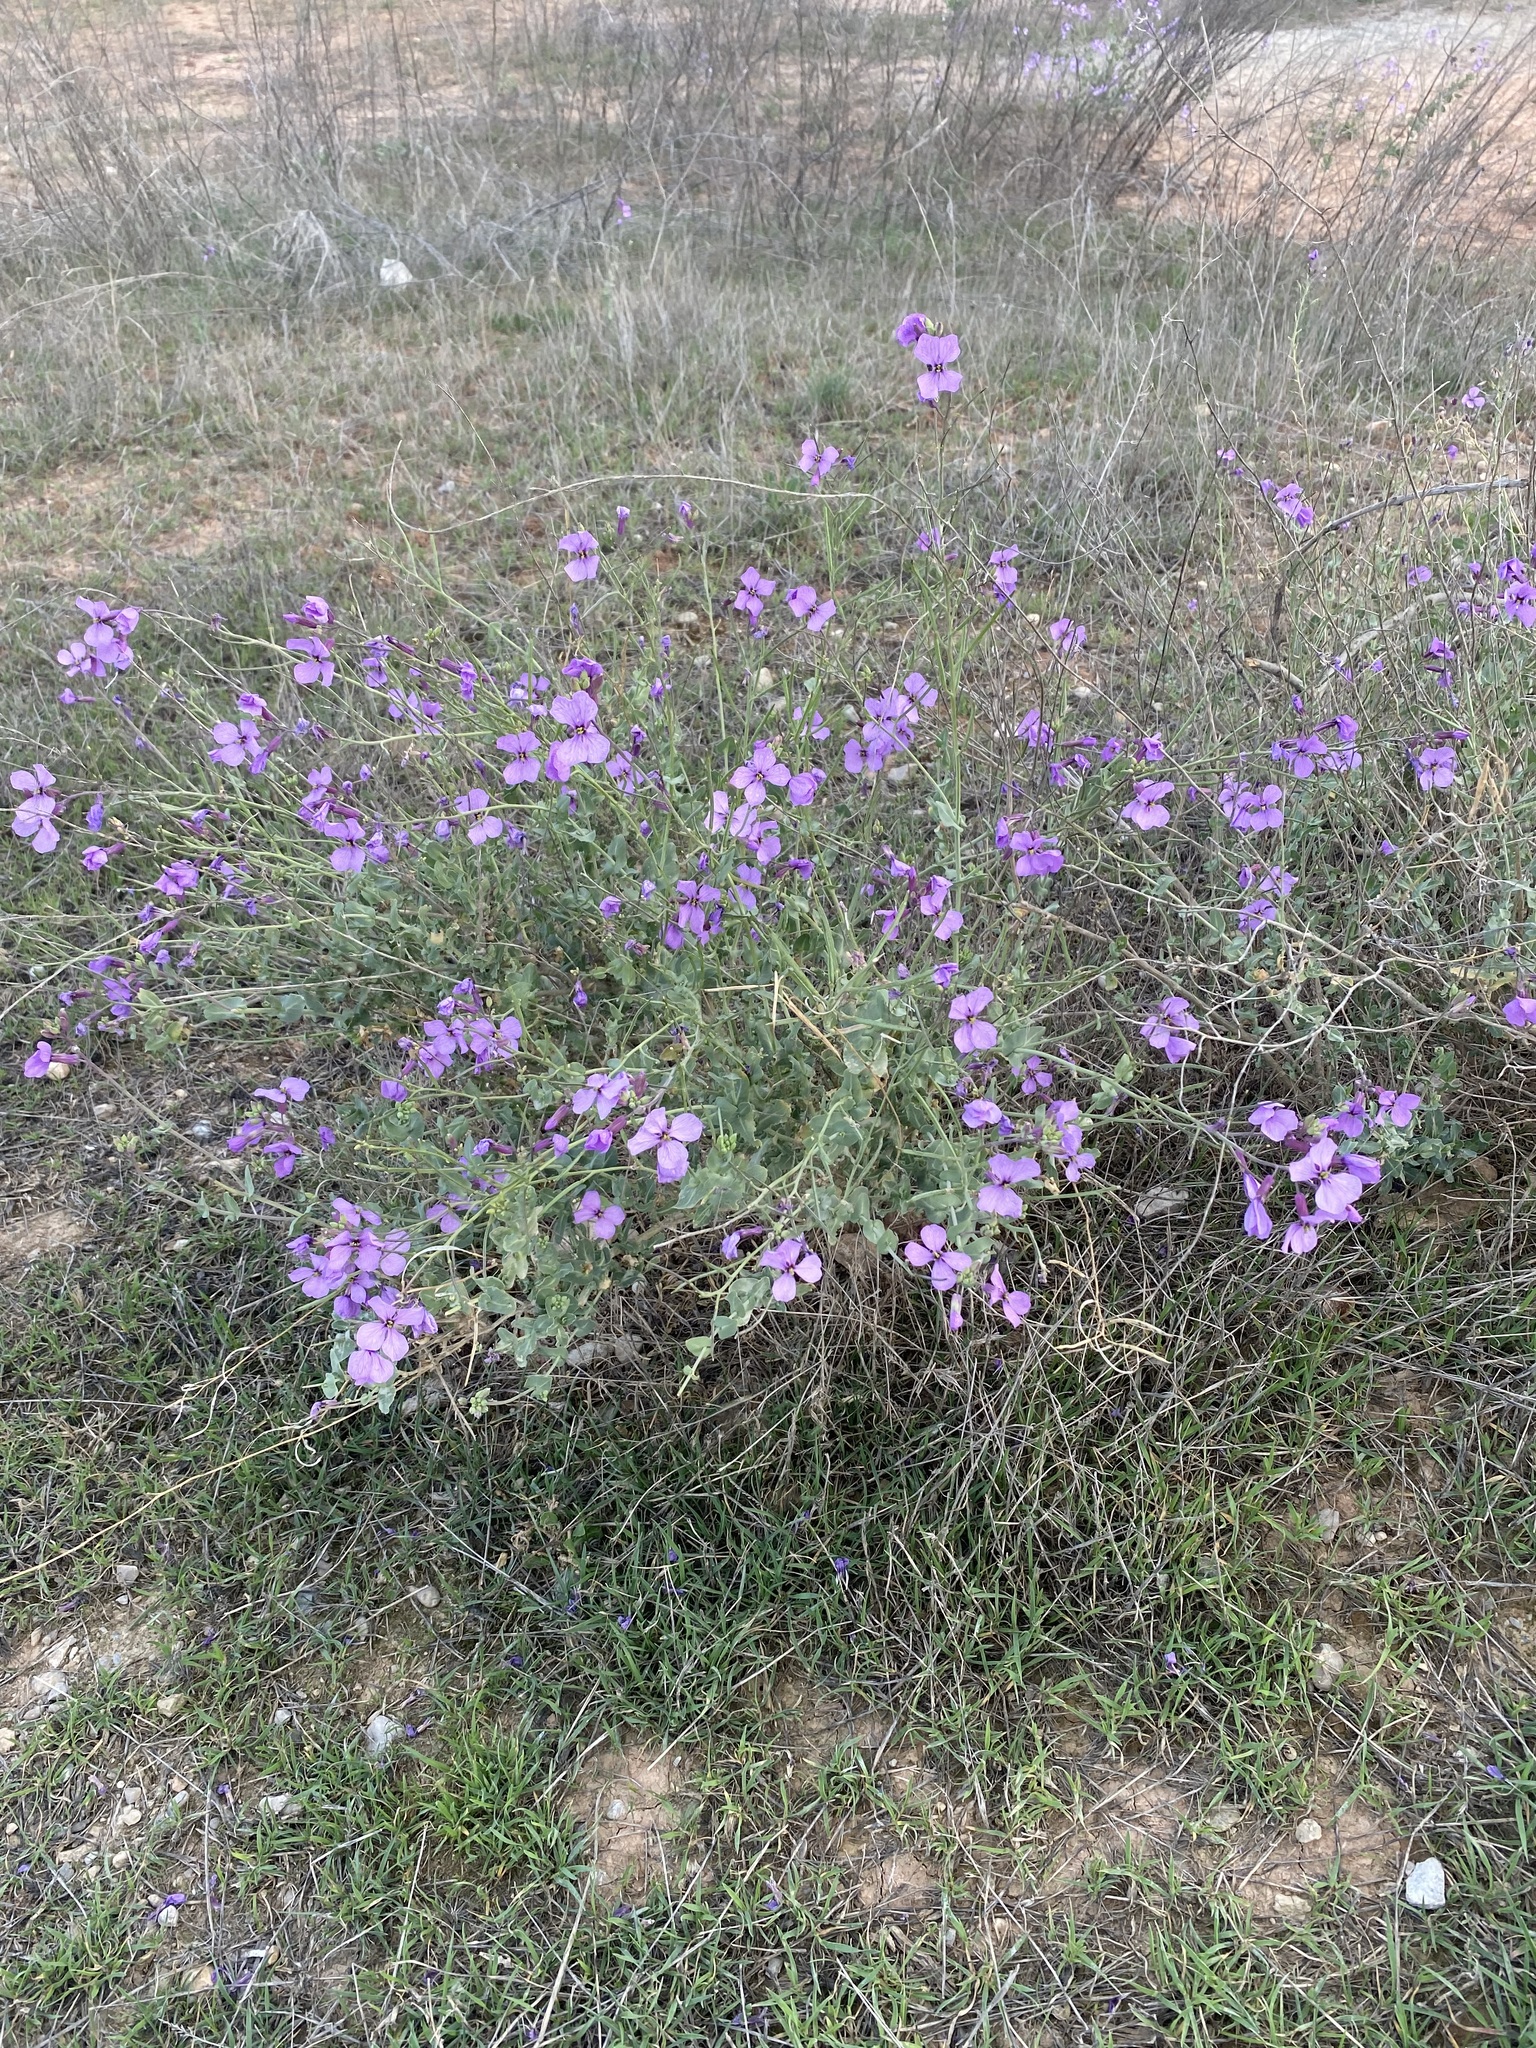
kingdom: Plantae
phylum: Tracheophyta
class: Magnoliopsida
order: Brassicales
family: Brassicaceae
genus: Moricandia
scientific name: Moricandia arvensis
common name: Purple mistress
